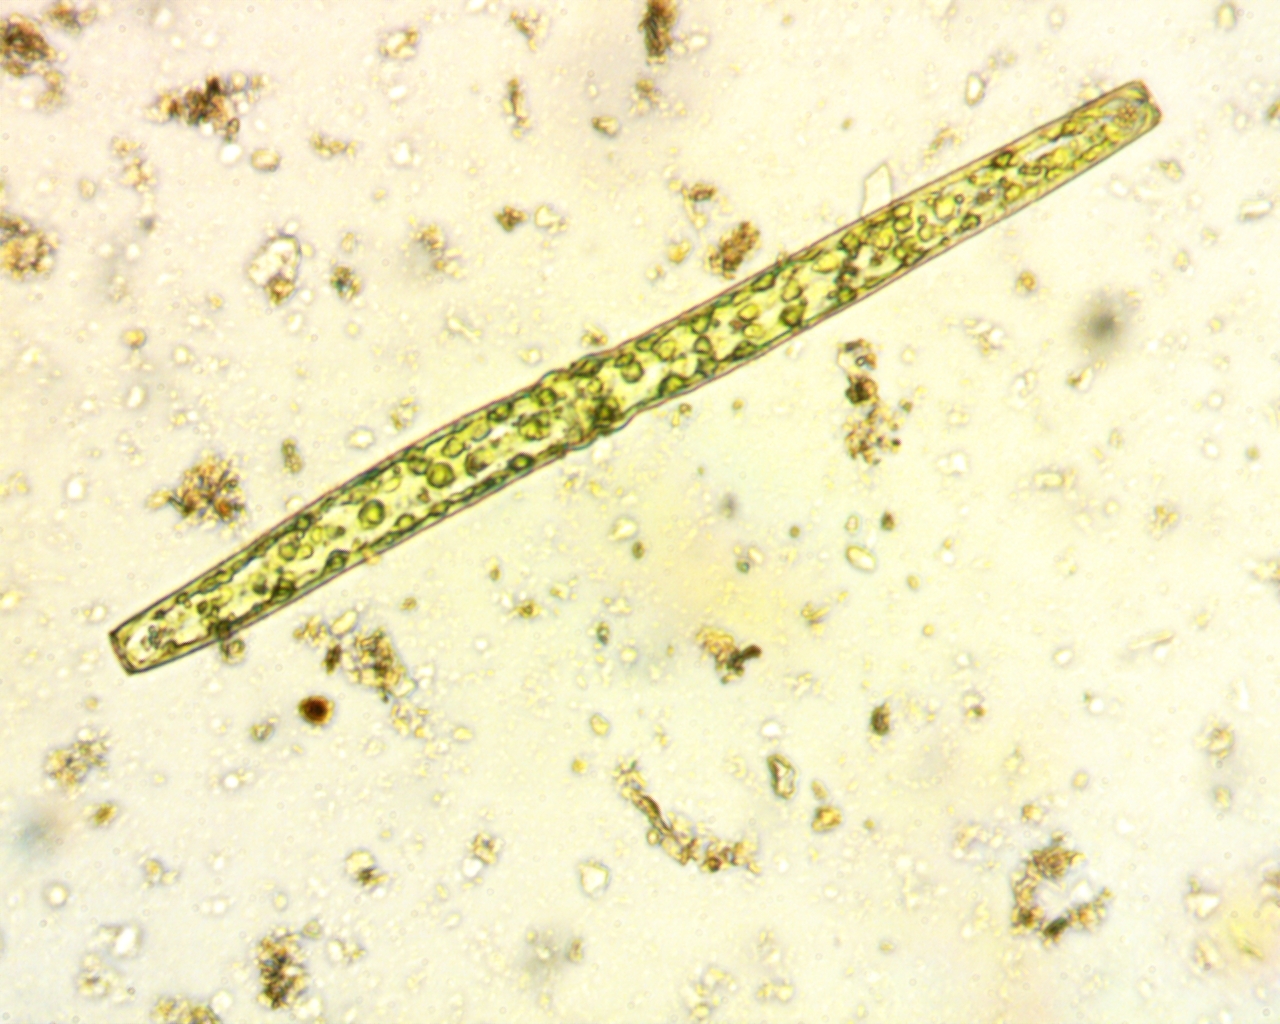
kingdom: Plantae
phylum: Charophyta
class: Conjugatophyceae
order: Desmidiales
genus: Pleurotaenium
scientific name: Pleurotaenium ehrenbergii
